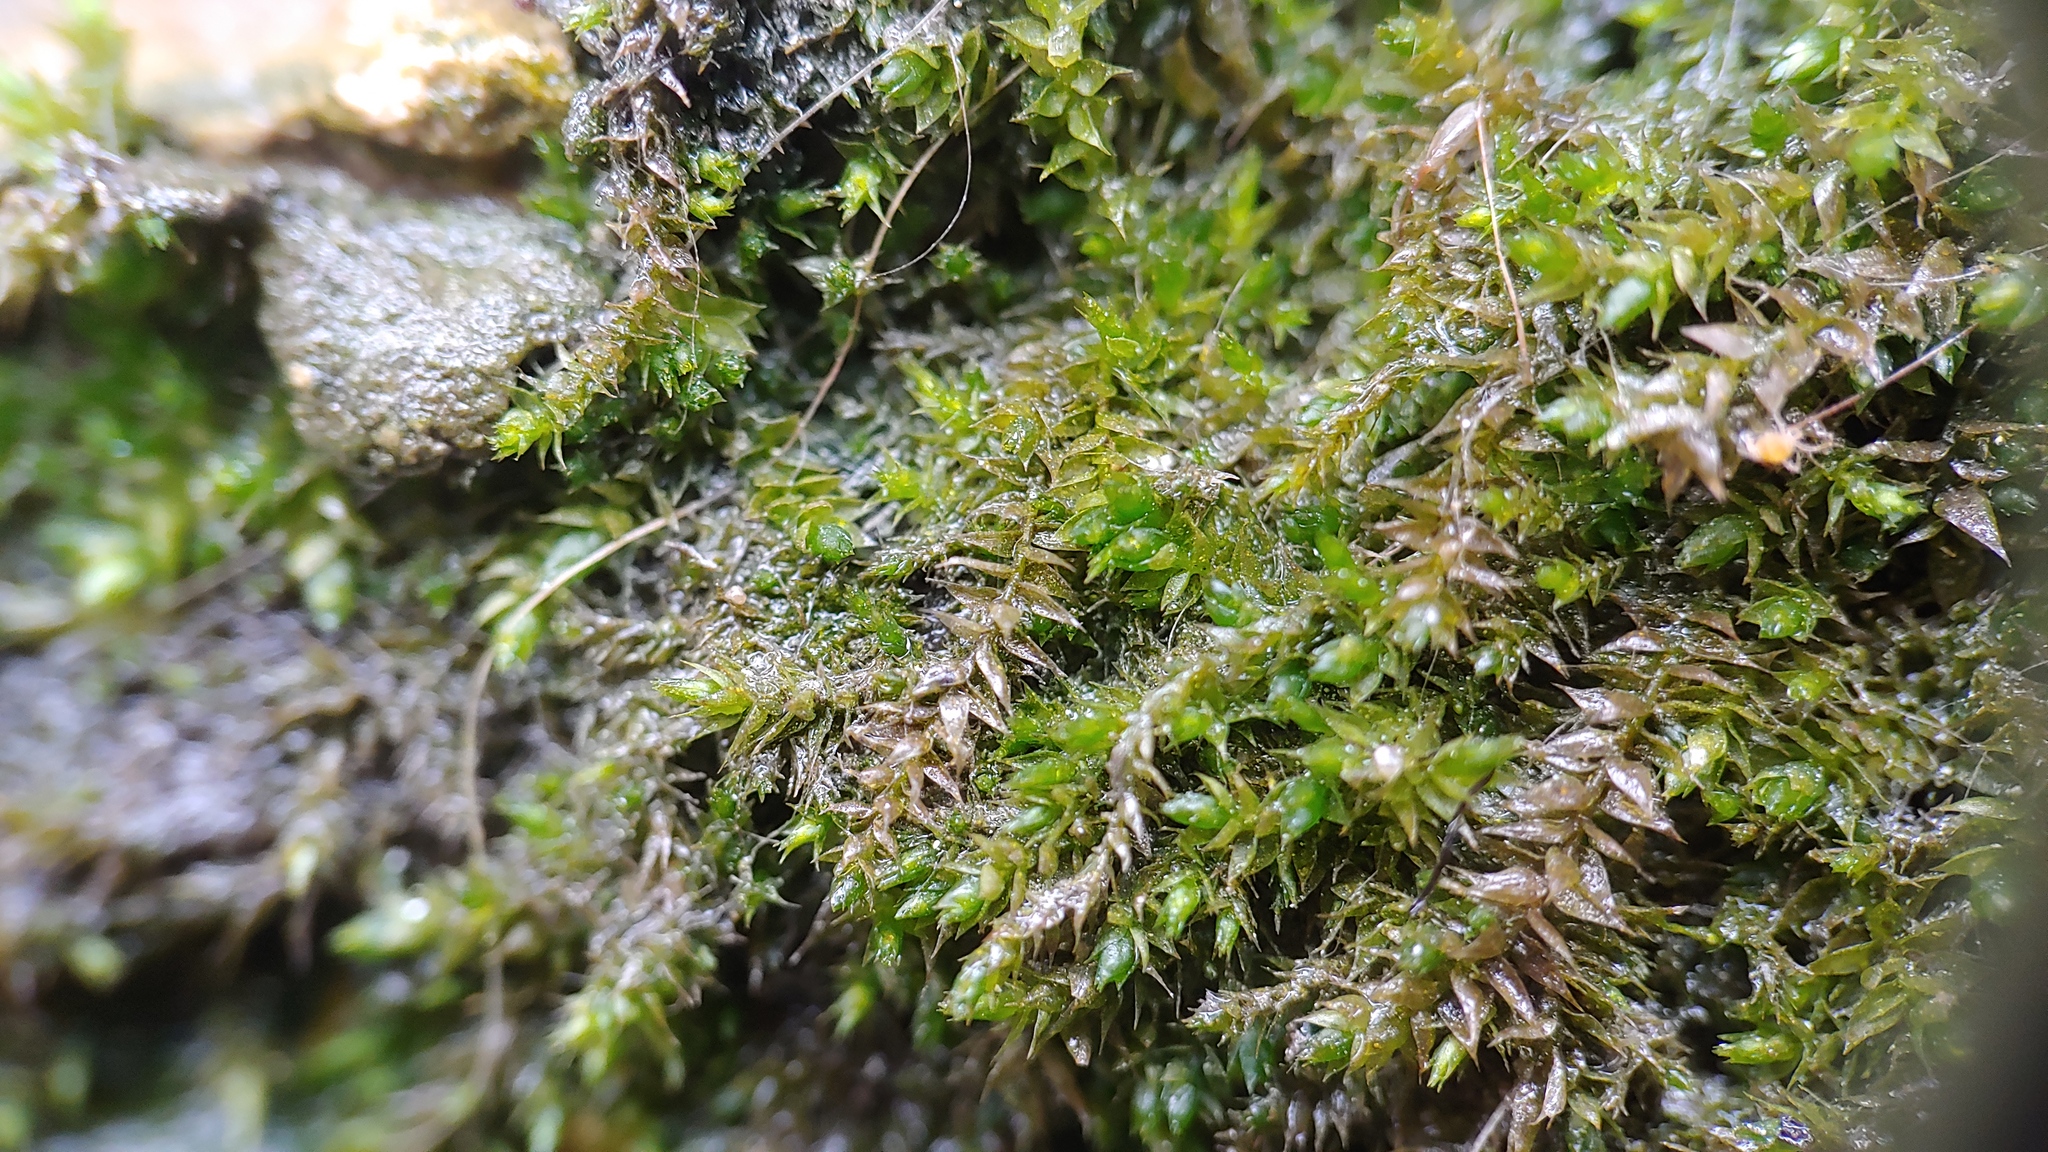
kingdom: Plantae
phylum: Bryophyta
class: Bryopsida
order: Hypnales
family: Brachytheciaceae
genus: Rhynchostegium
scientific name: Rhynchostegium riparioides
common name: Platyhypnidium moss
